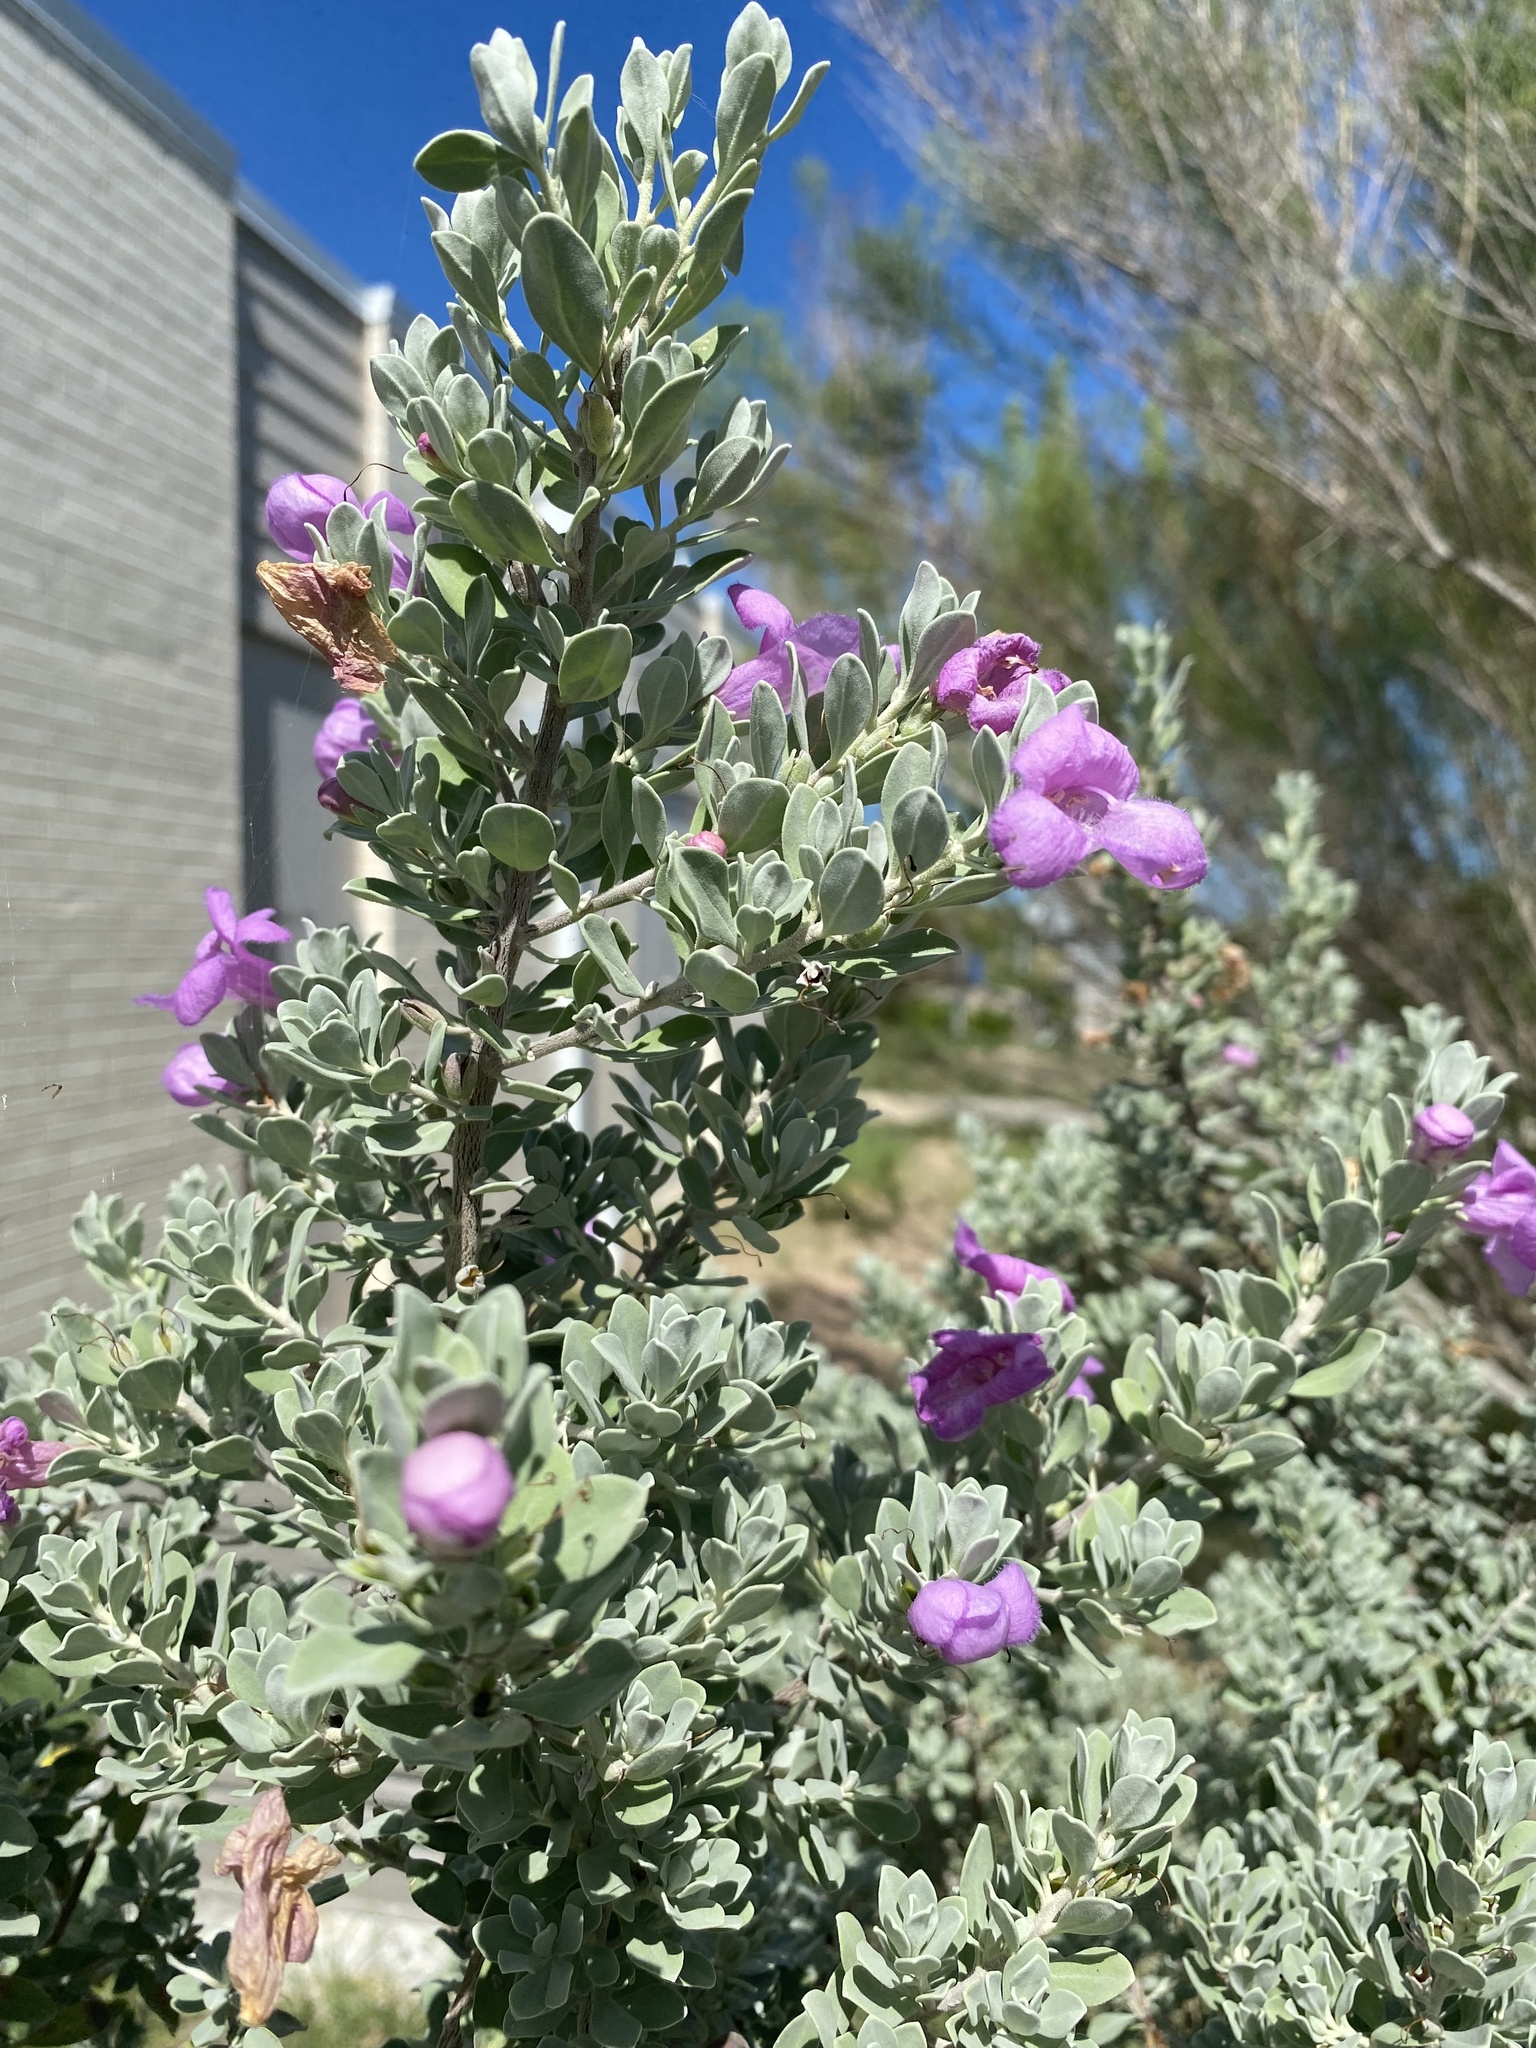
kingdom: Plantae
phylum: Tracheophyta
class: Magnoliopsida
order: Lamiales
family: Scrophulariaceae
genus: Leucophyllum
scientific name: Leucophyllum frutescens
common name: Texas silverleaf
